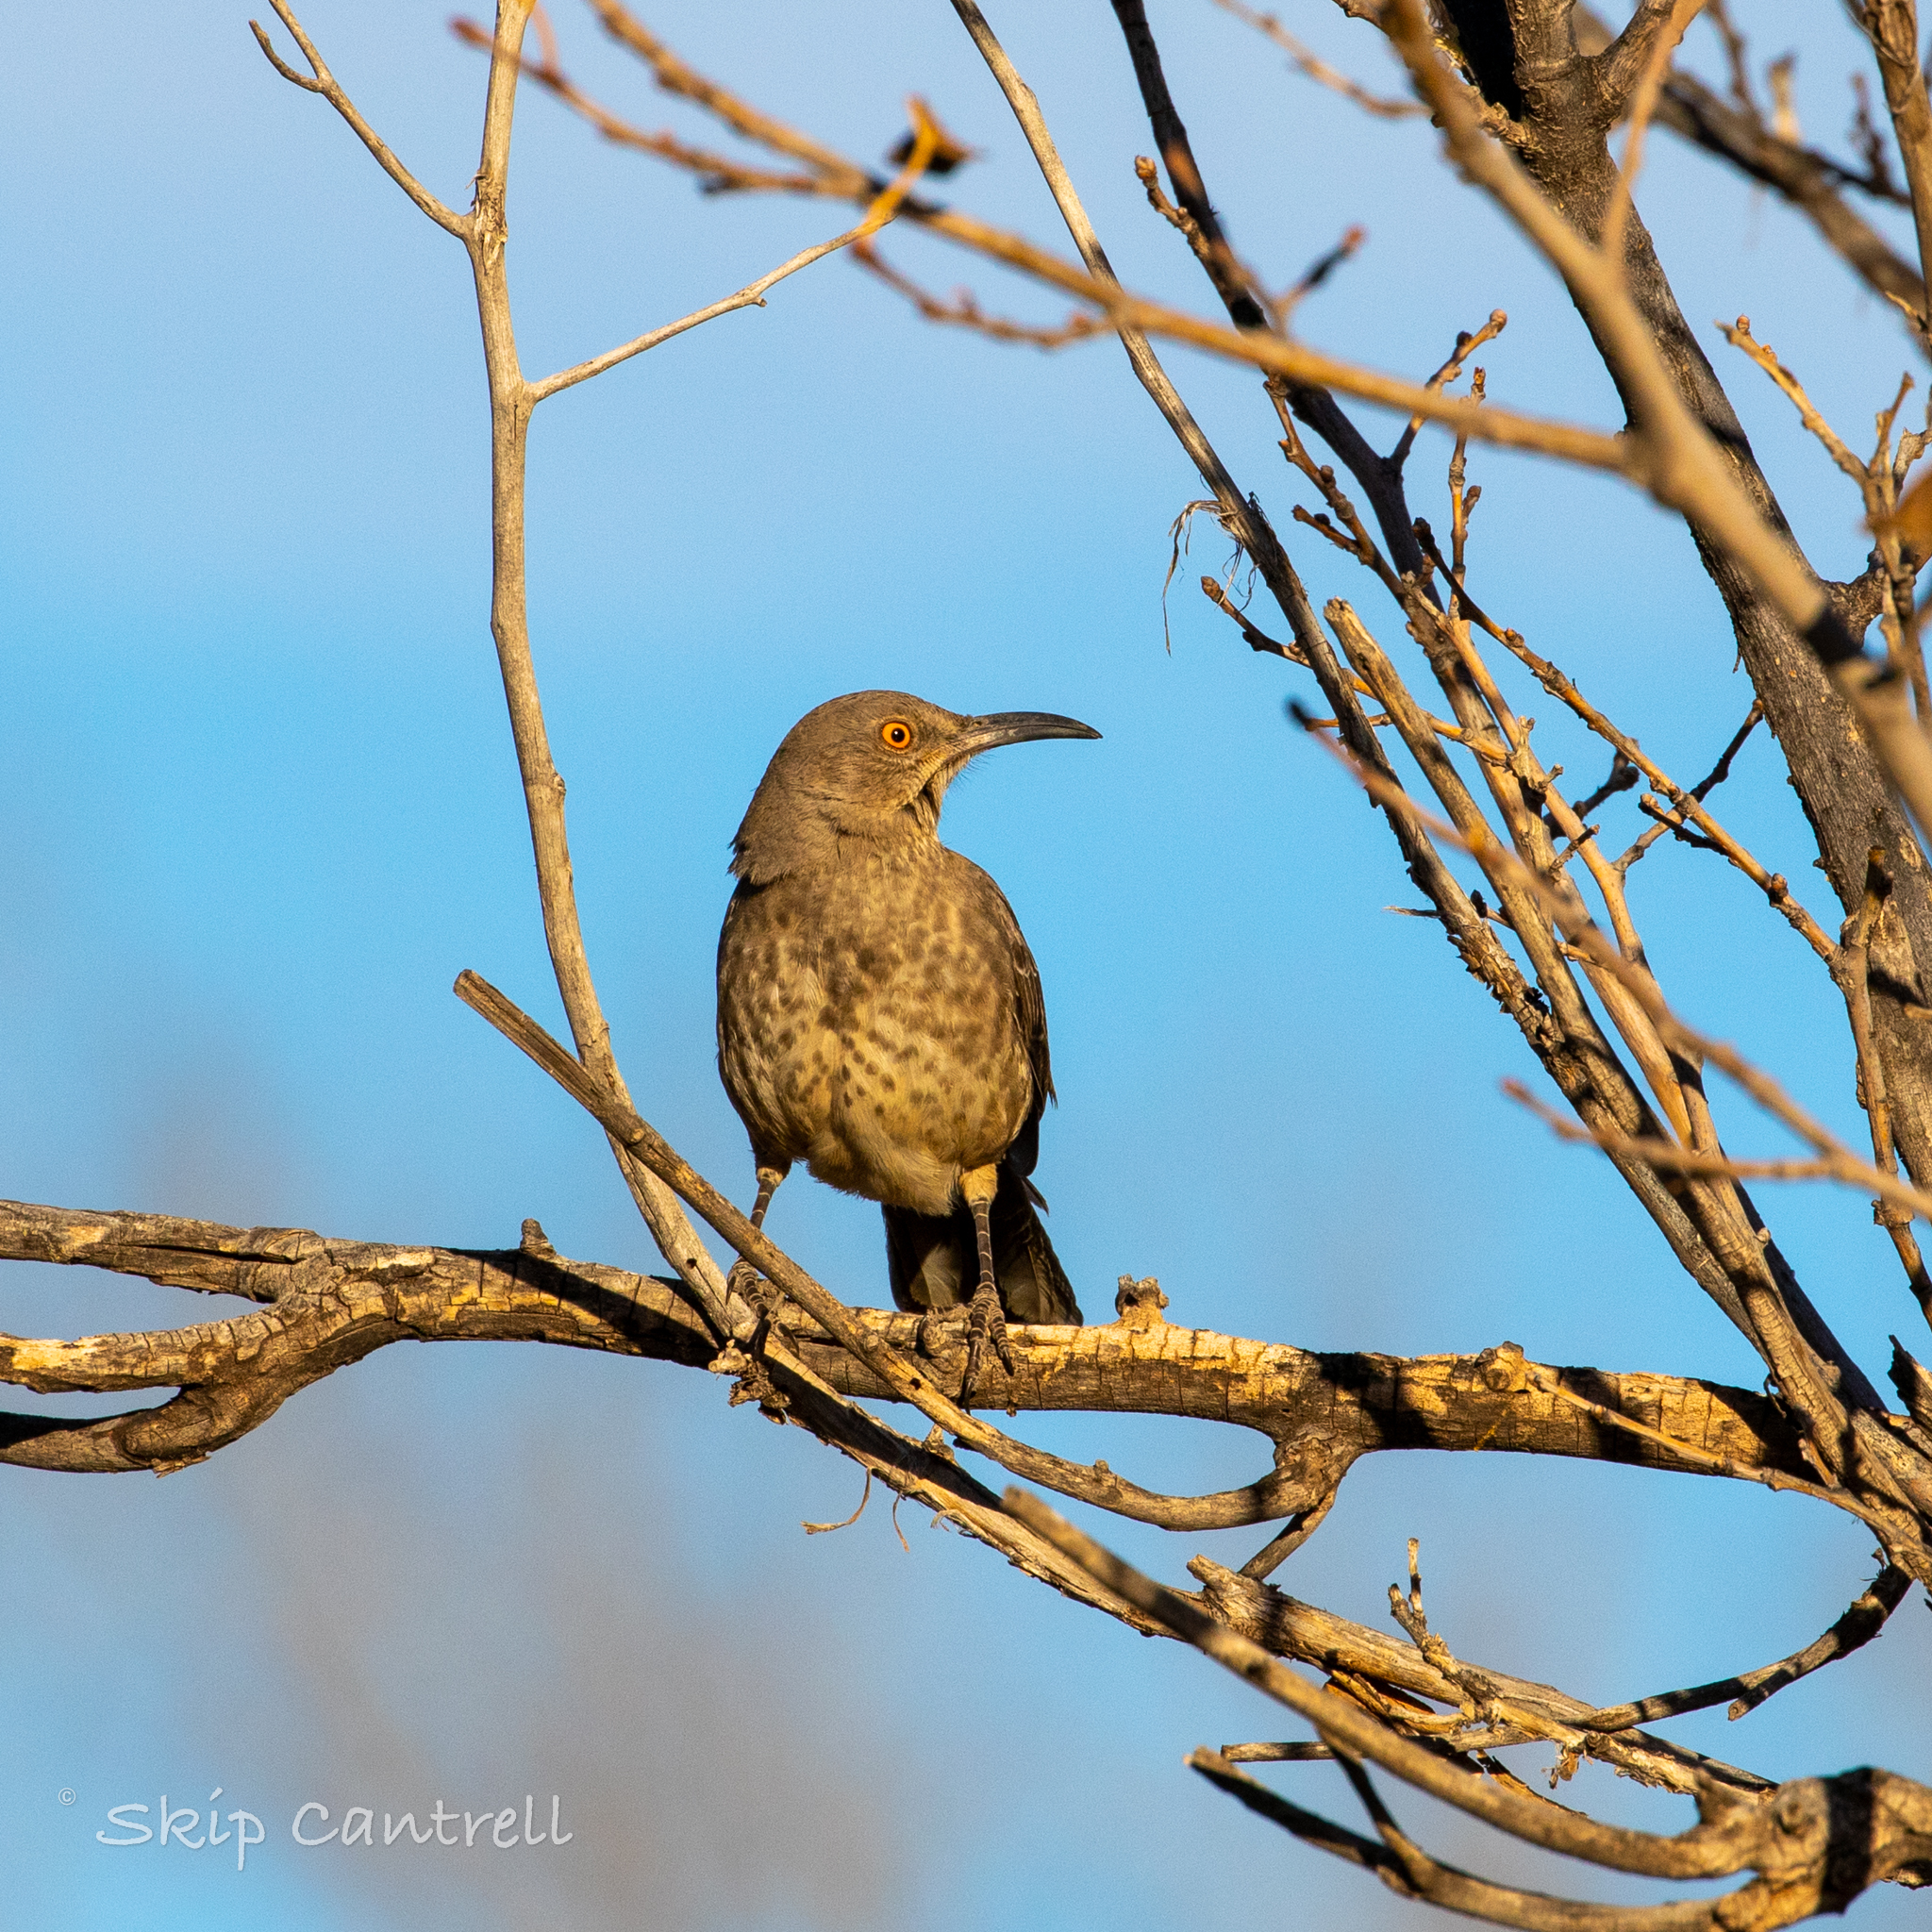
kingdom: Animalia
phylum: Chordata
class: Aves
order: Passeriformes
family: Mimidae
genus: Toxostoma
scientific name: Toxostoma curvirostre
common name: Curve-billed thrasher
